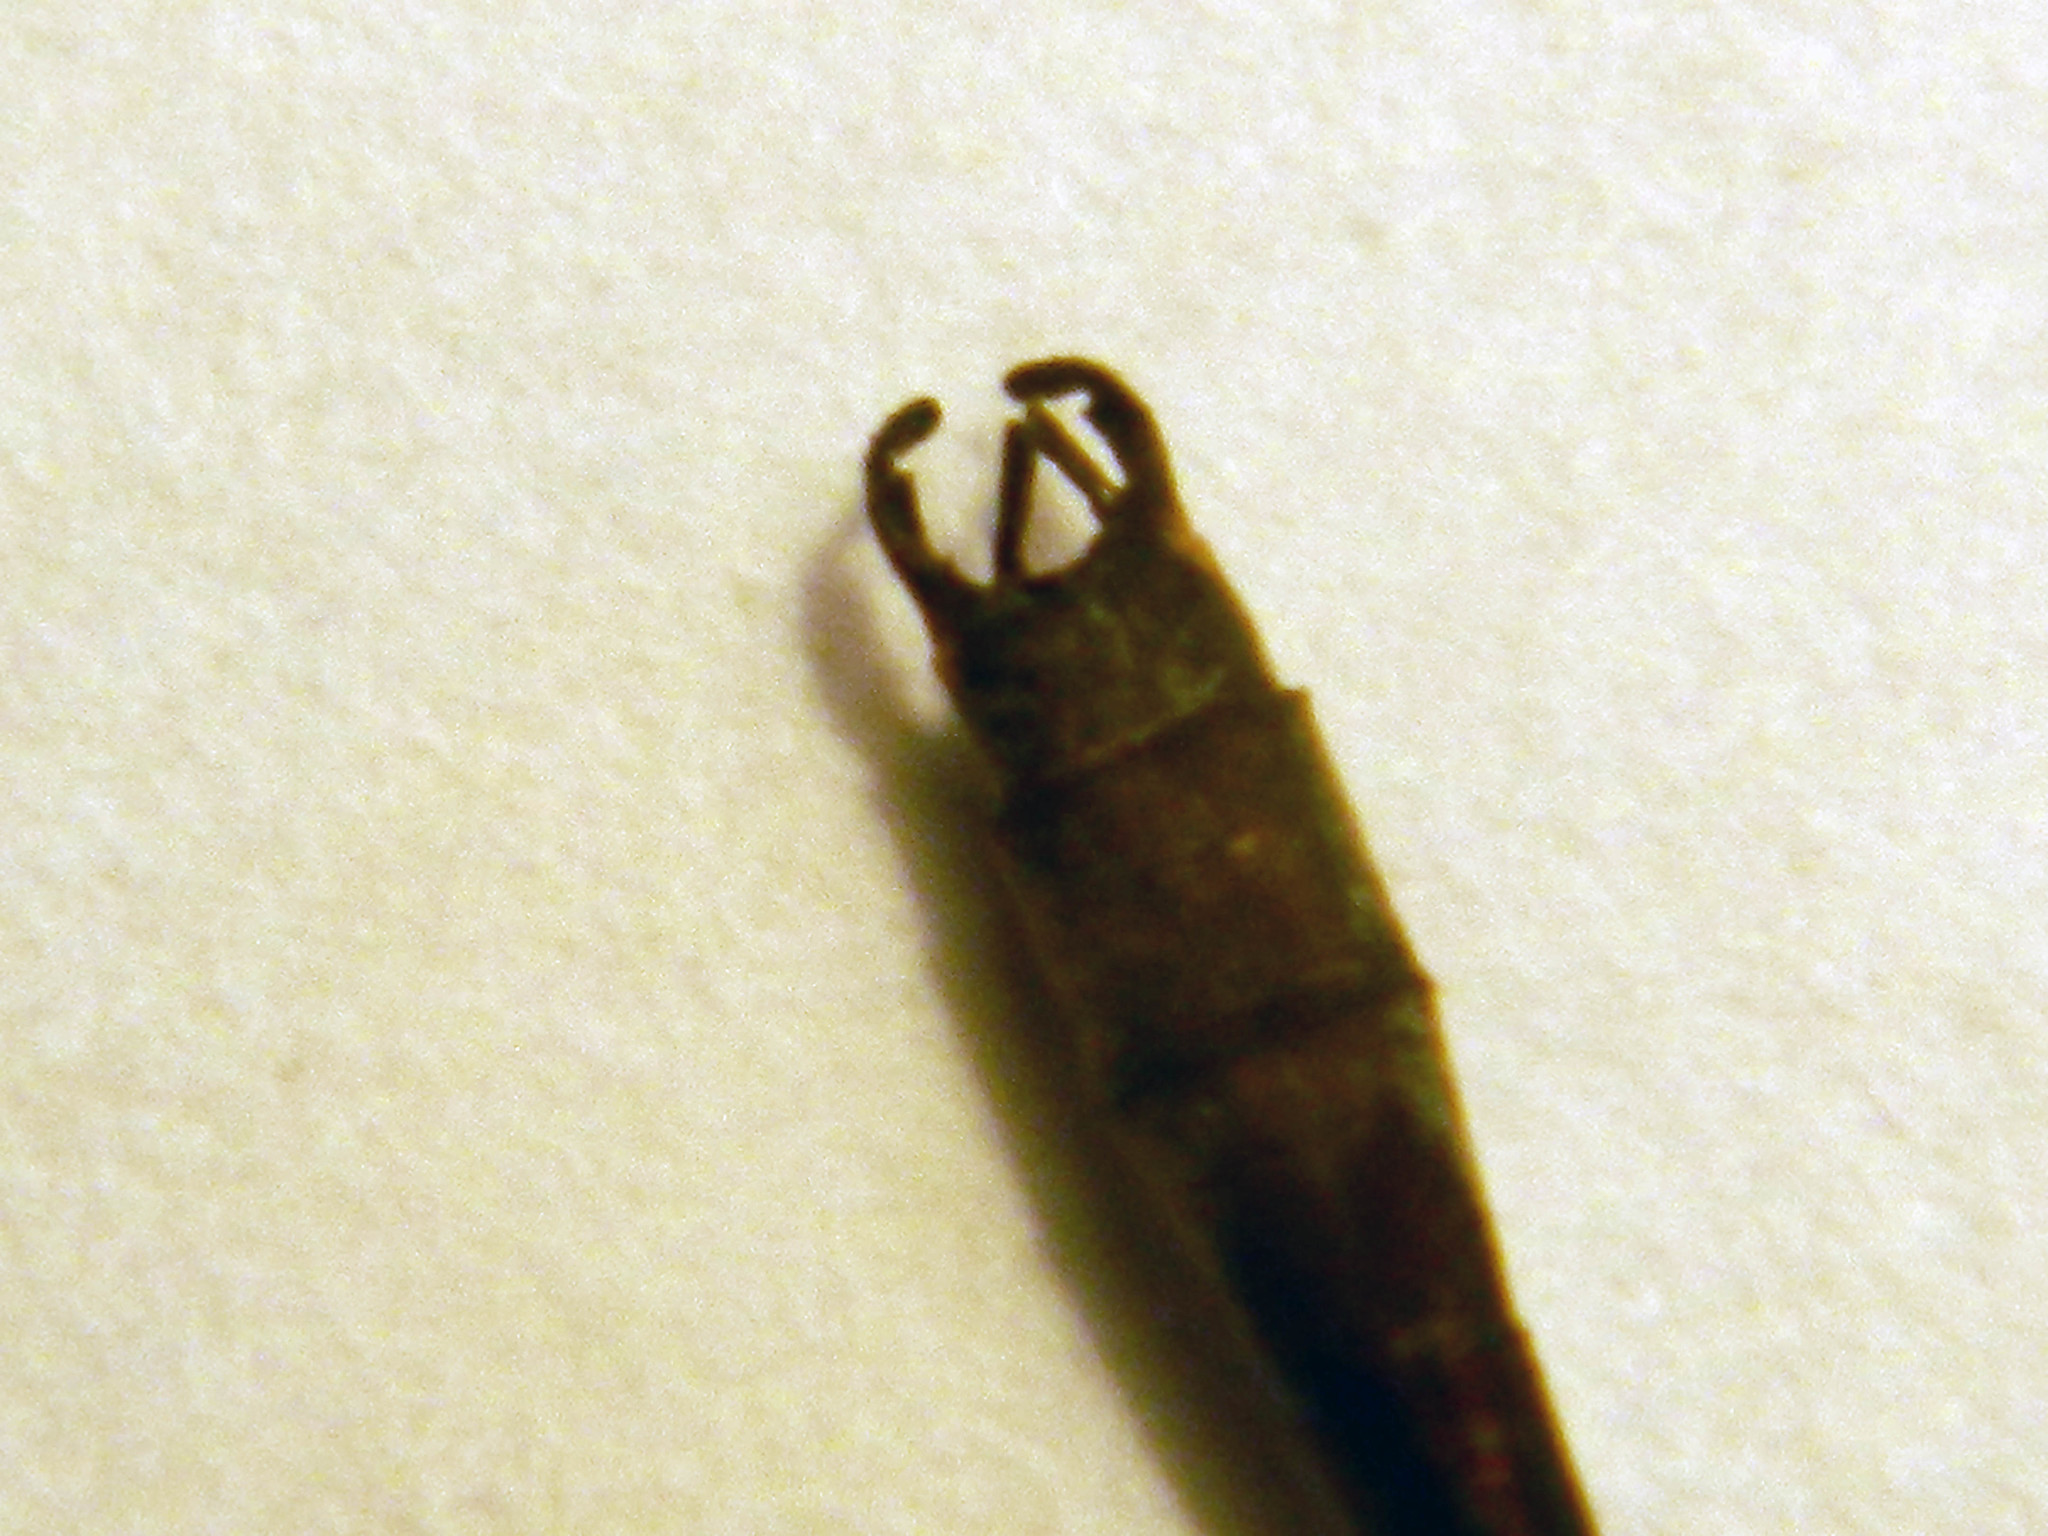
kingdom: Animalia
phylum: Arthropoda
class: Insecta
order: Odonata
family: Lestidae
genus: Lestes
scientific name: Lestes disjunctus
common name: Northern spreadwing
